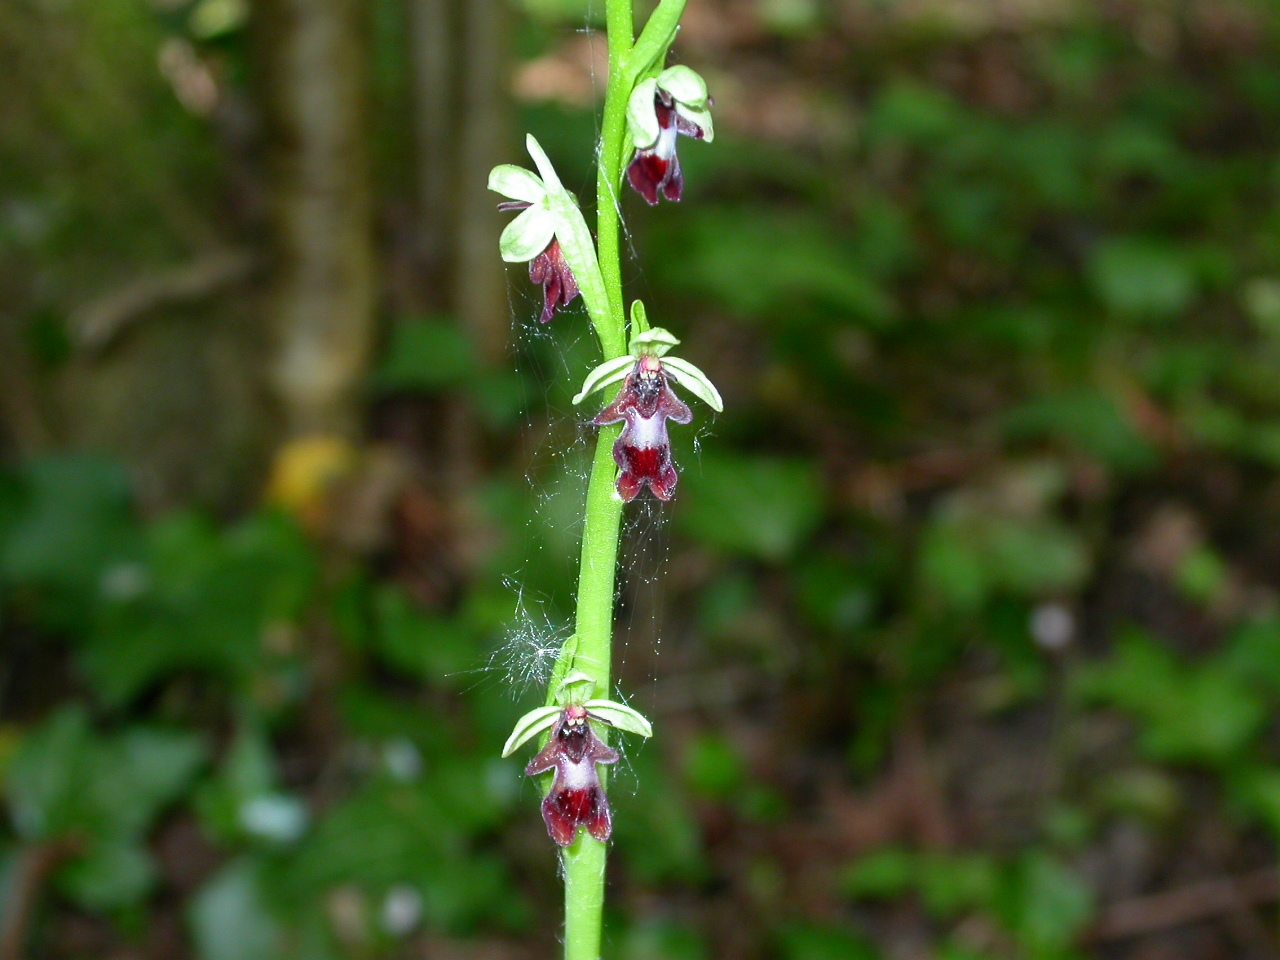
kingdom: Plantae
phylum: Tracheophyta
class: Liliopsida
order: Asparagales
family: Orchidaceae
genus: Ophrys
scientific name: Ophrys insectifera
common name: Fly orchid
